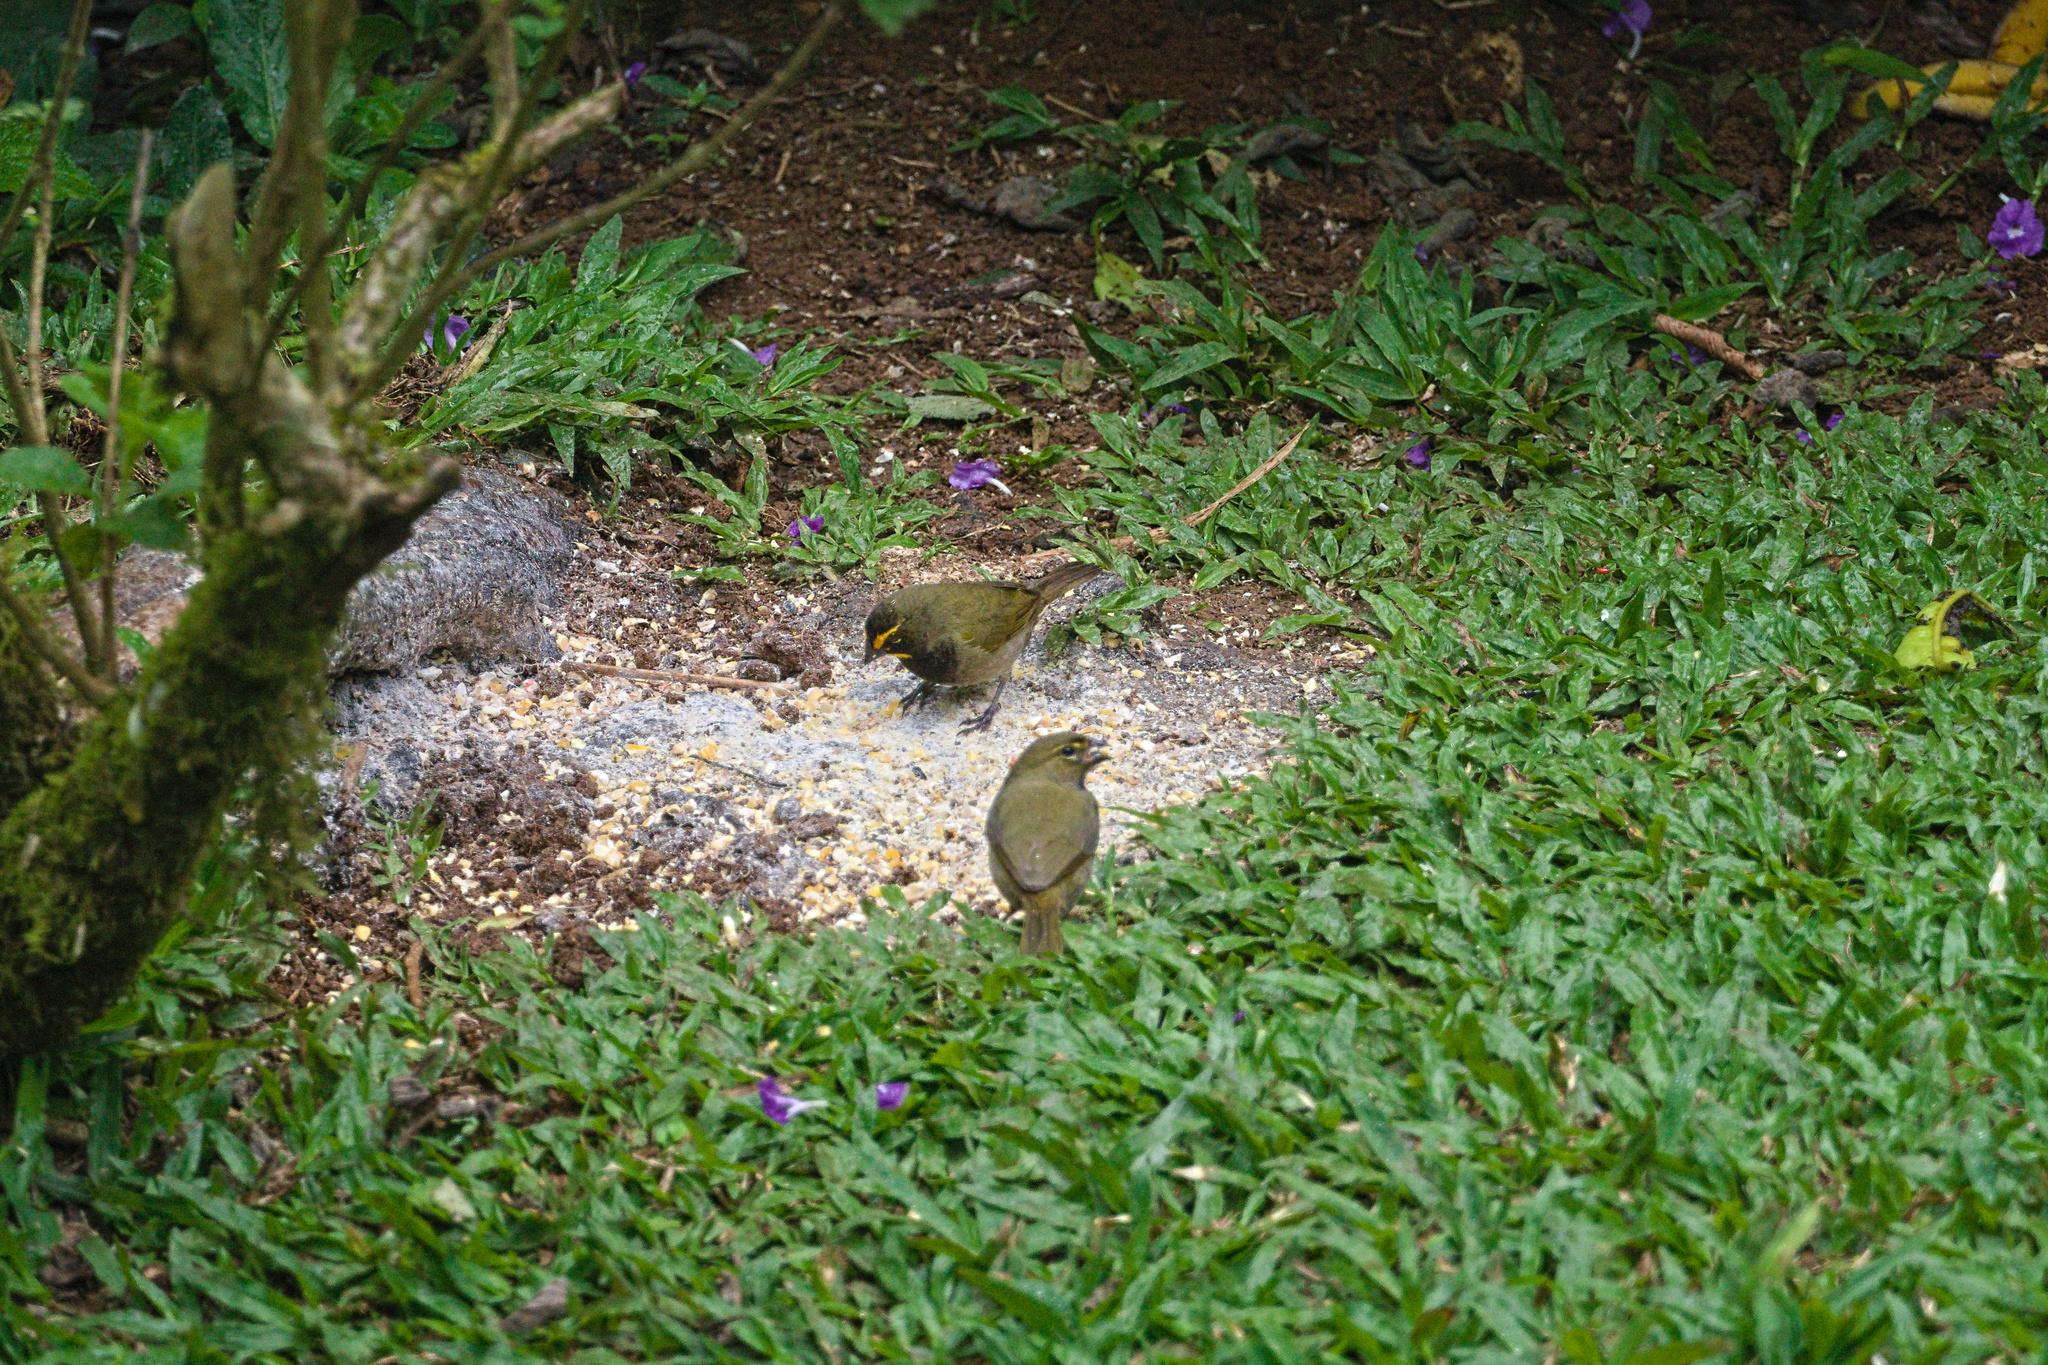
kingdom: Animalia
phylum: Chordata
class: Aves
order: Passeriformes
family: Thraupidae
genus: Tiaris
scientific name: Tiaris olivaceus
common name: Yellow-faced grassquit
